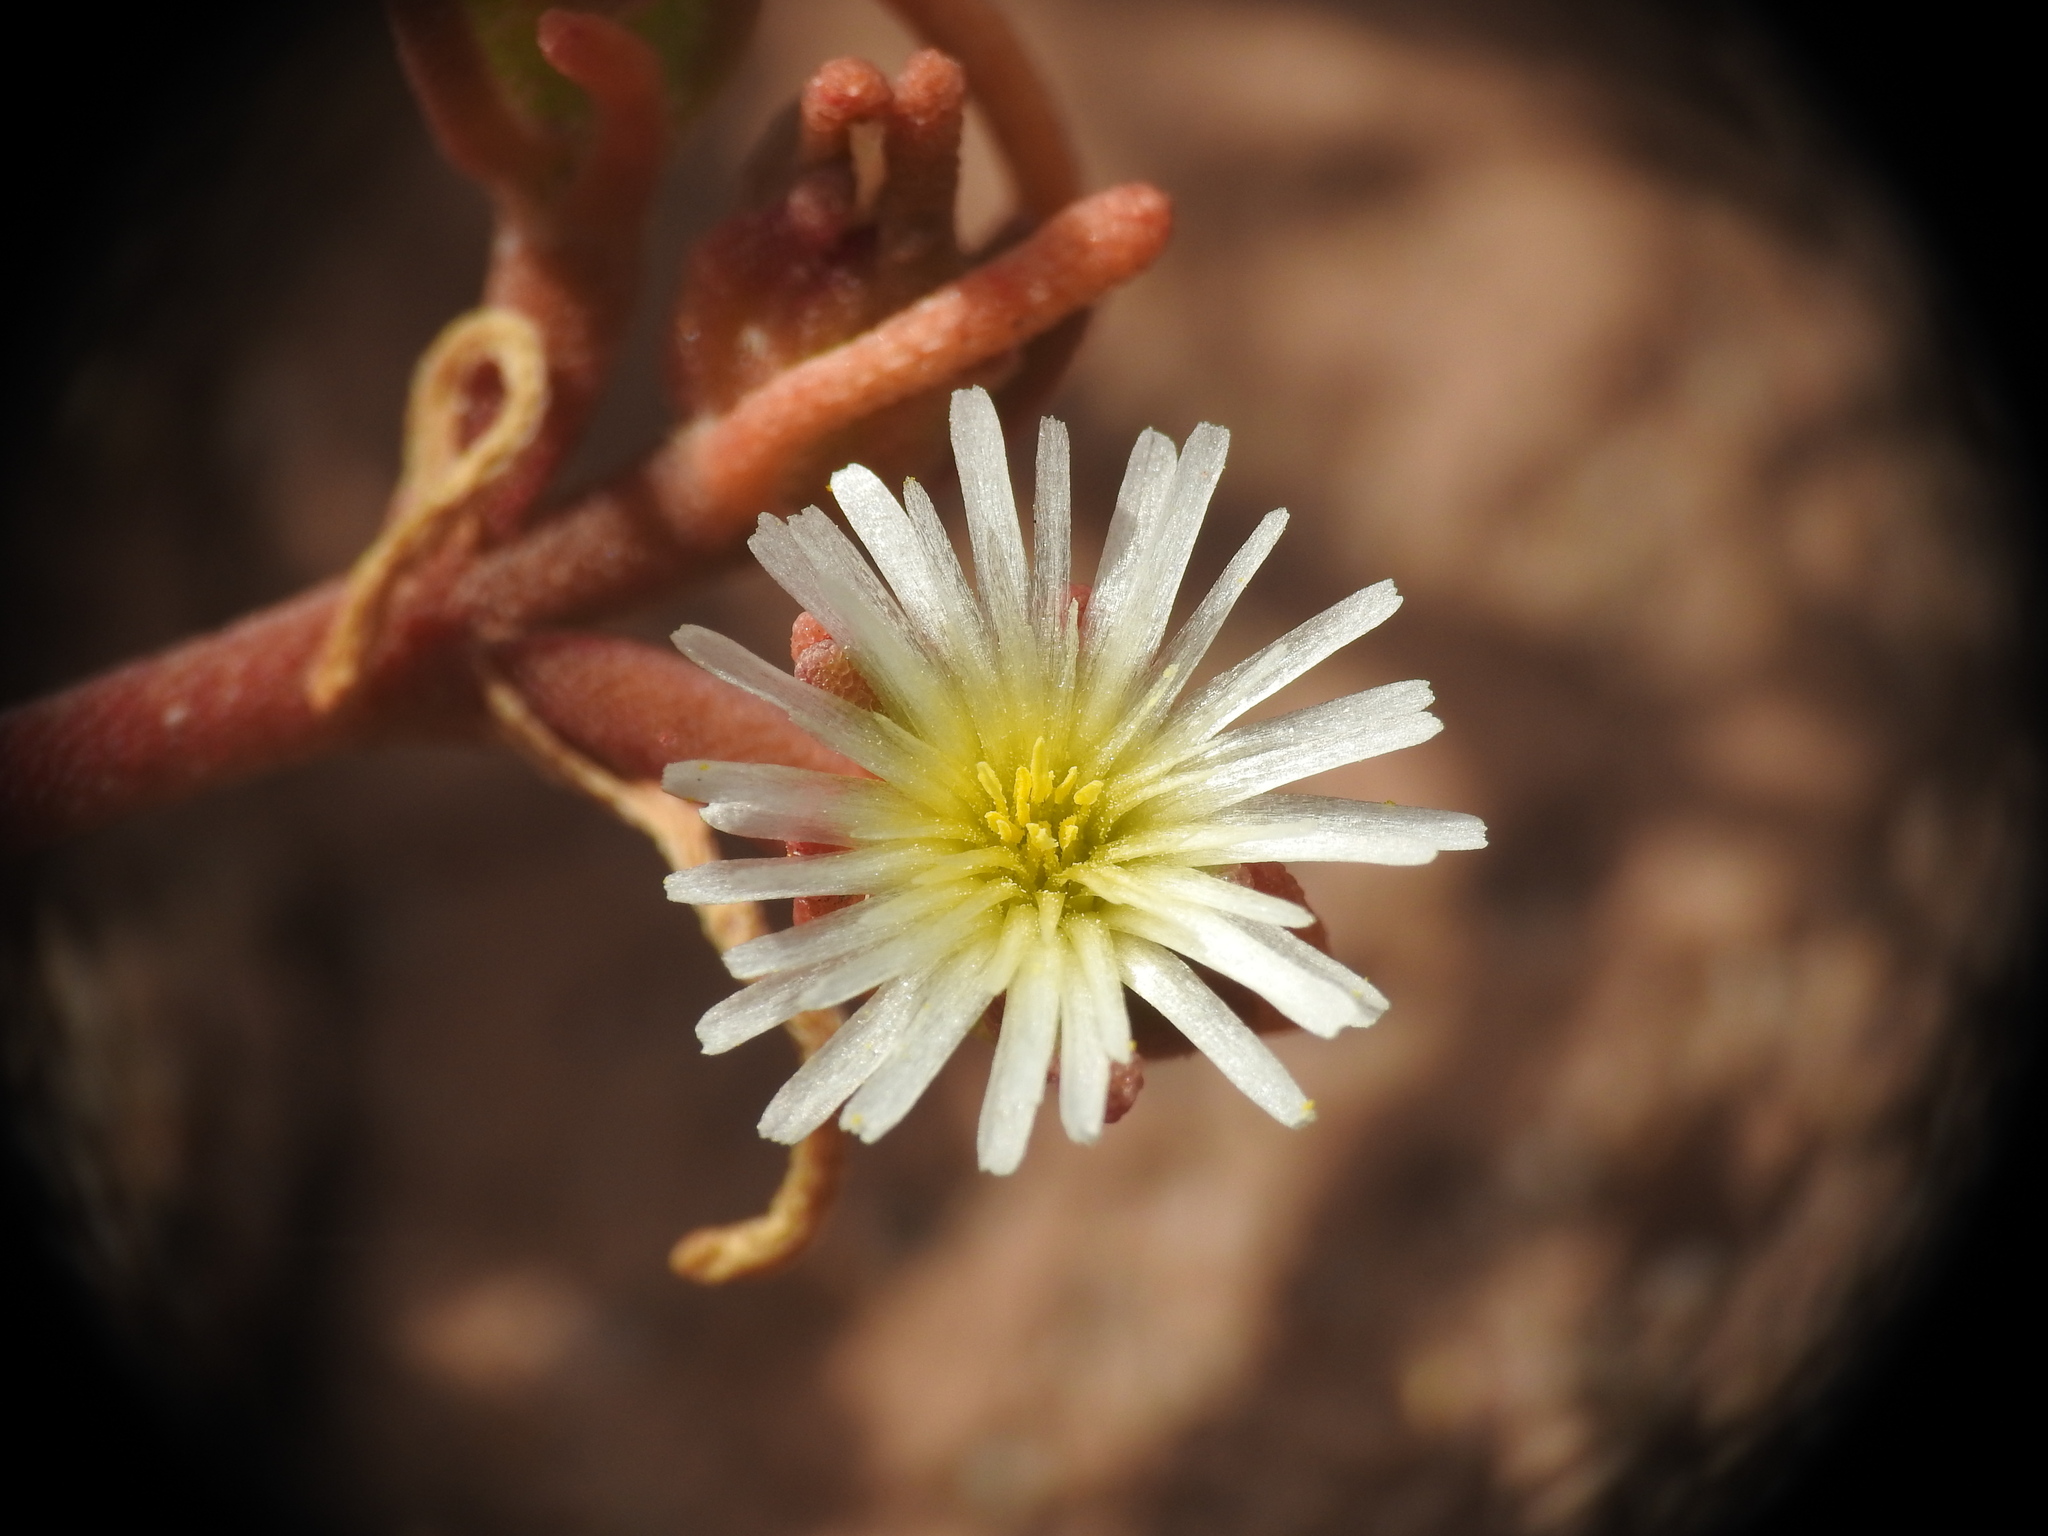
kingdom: Plantae
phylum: Tracheophyta
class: Magnoliopsida
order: Caryophyllales
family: Aizoaceae
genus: Mesembryanthemum
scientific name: Mesembryanthemum nodiflorum
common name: Slenderleaf iceplant
